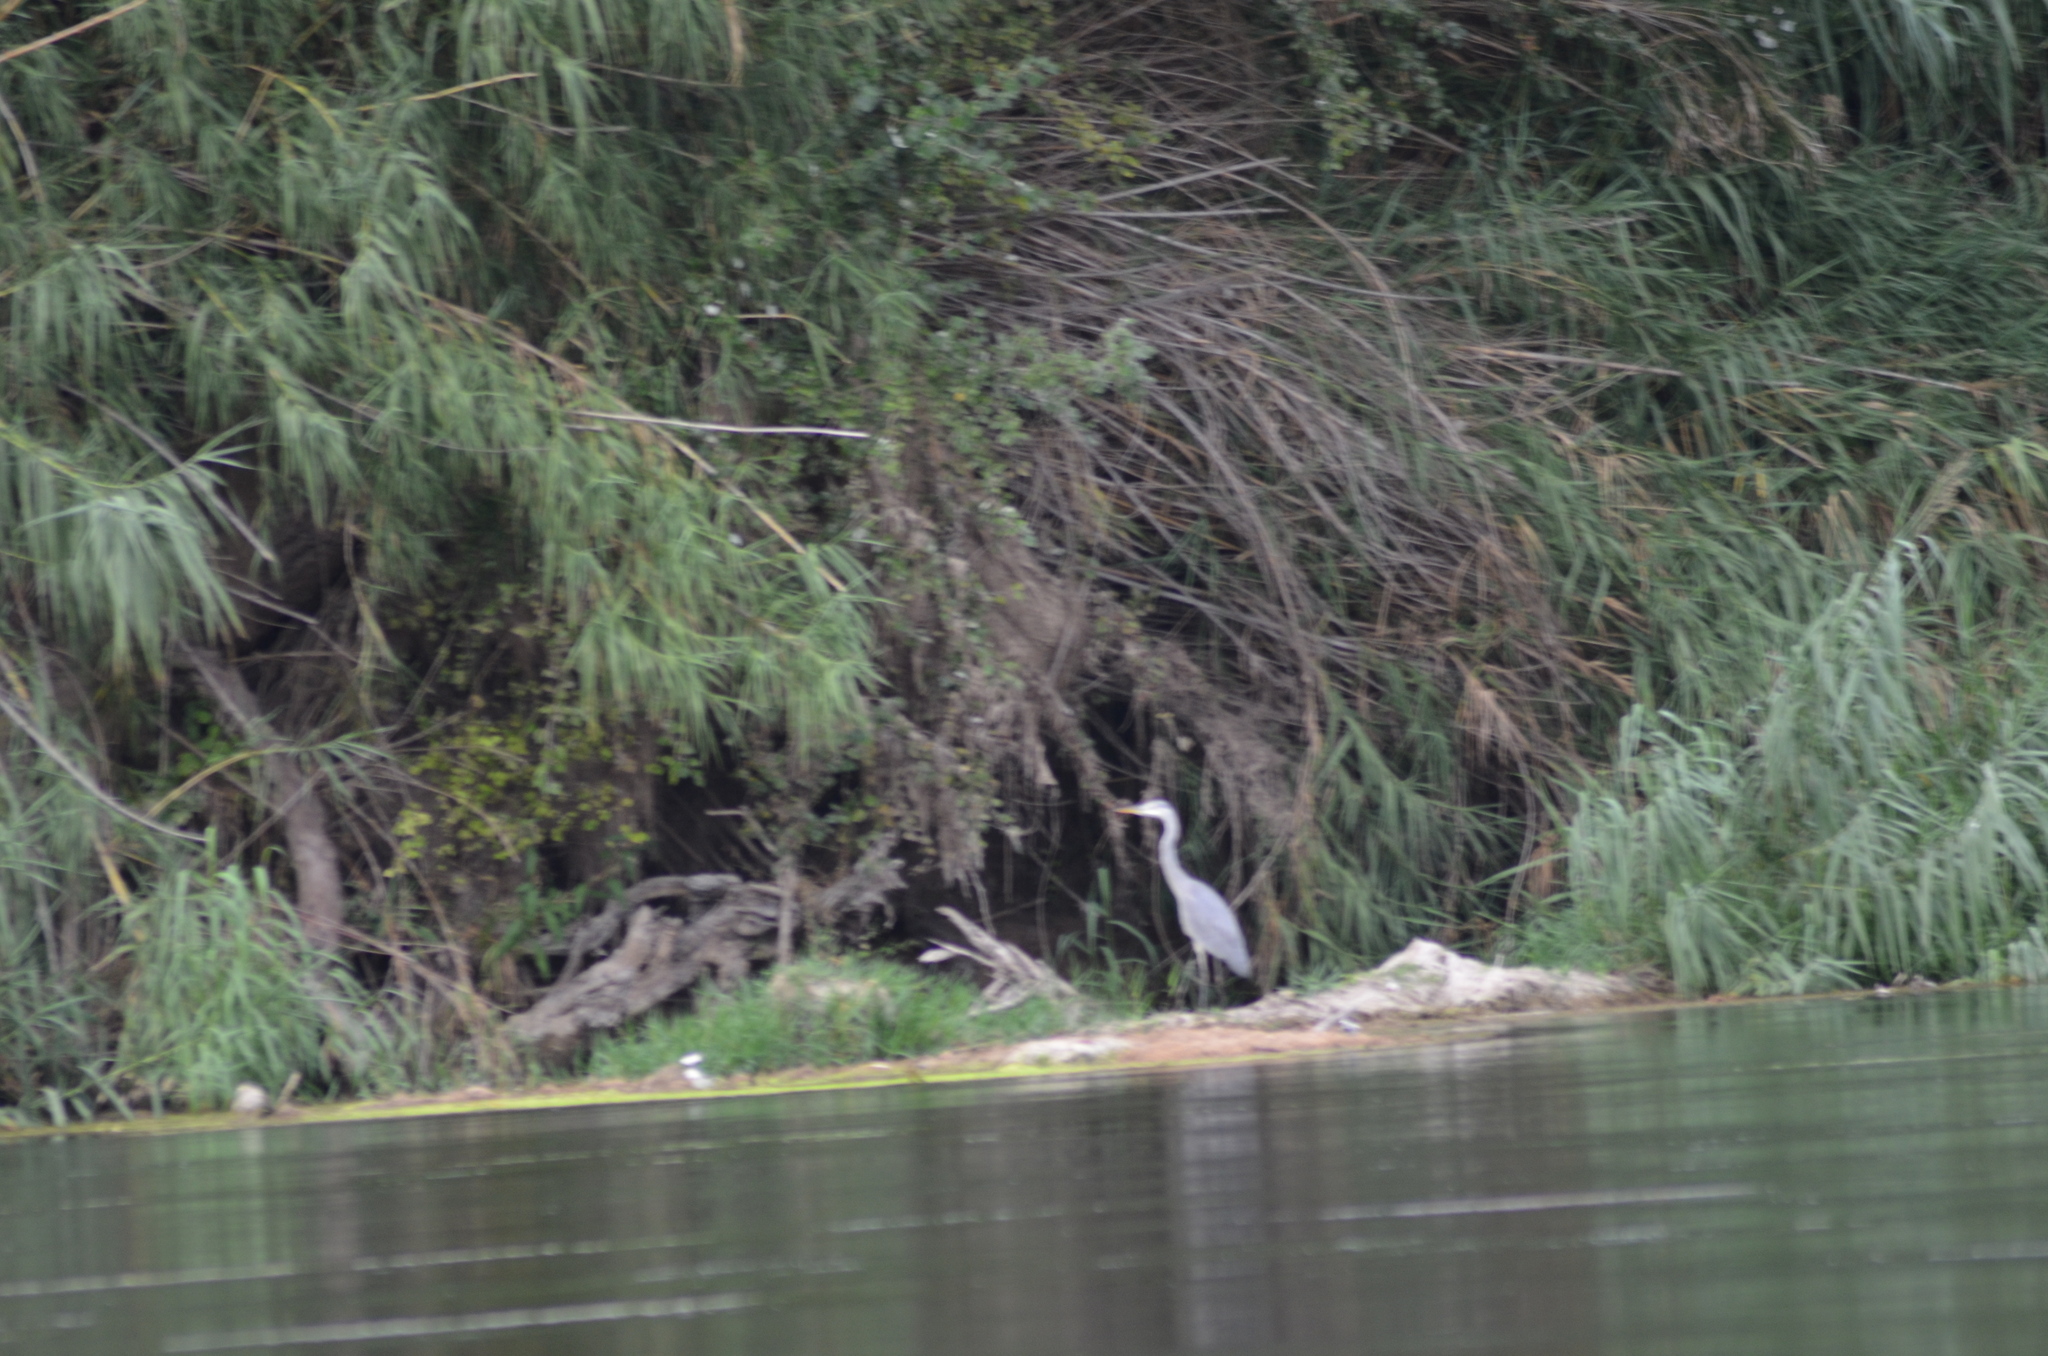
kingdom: Animalia
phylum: Chordata
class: Aves
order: Pelecaniformes
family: Ardeidae
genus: Ardea
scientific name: Ardea cinerea
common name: Grey heron
